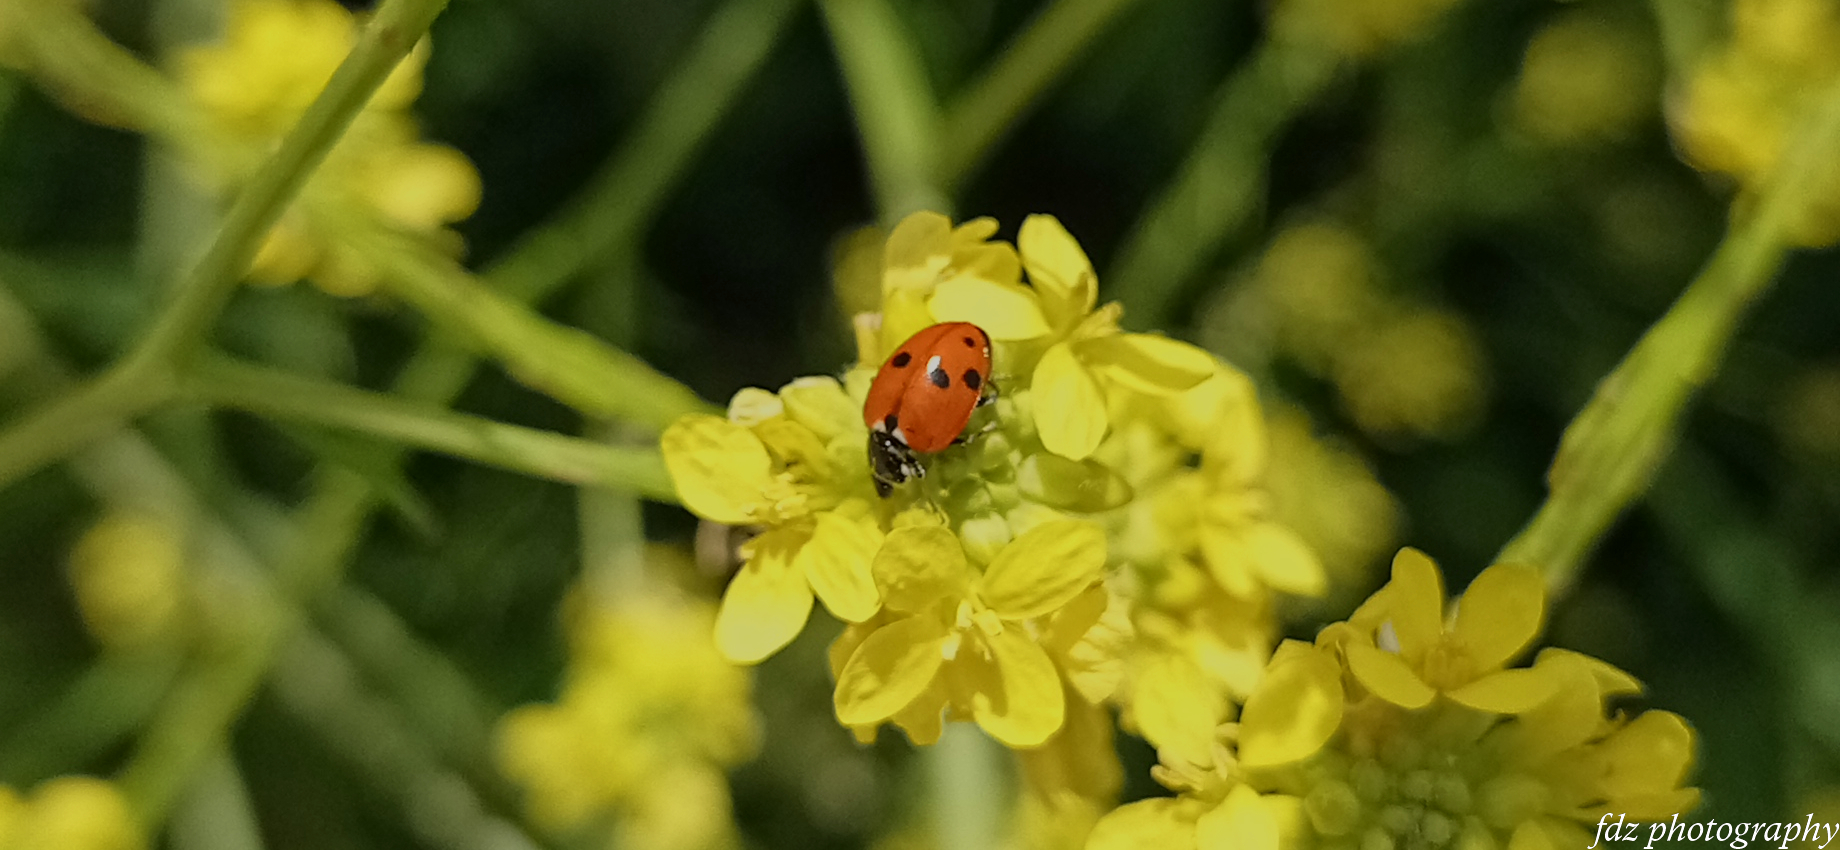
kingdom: Animalia
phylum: Arthropoda
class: Insecta
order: Coleoptera
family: Coccinellidae
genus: Hippodamia
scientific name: Hippodamia variegata
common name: Ladybird beetle
